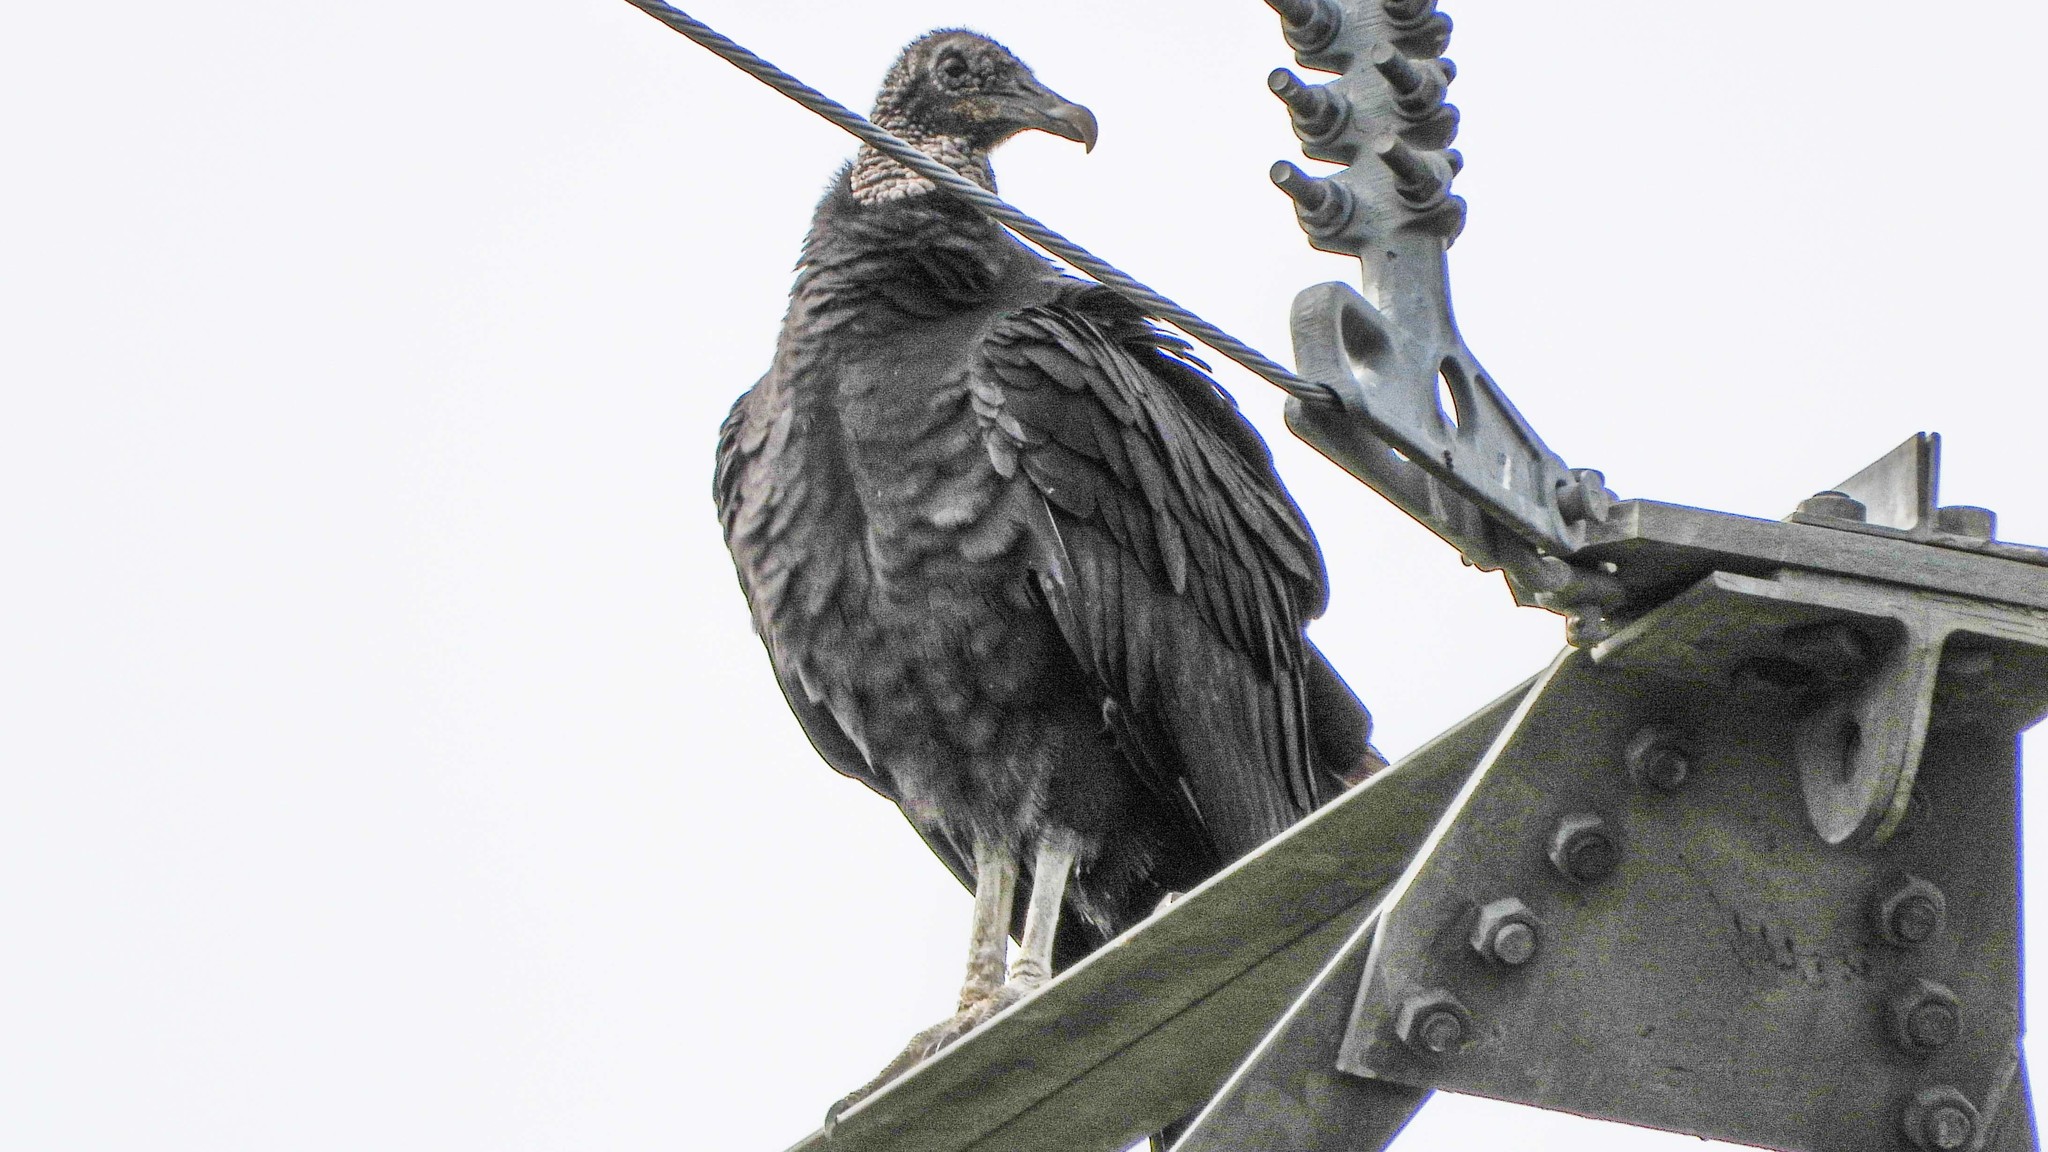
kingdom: Animalia
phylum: Chordata
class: Aves
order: Accipitriformes
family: Cathartidae
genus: Coragyps
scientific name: Coragyps atratus
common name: Black vulture
